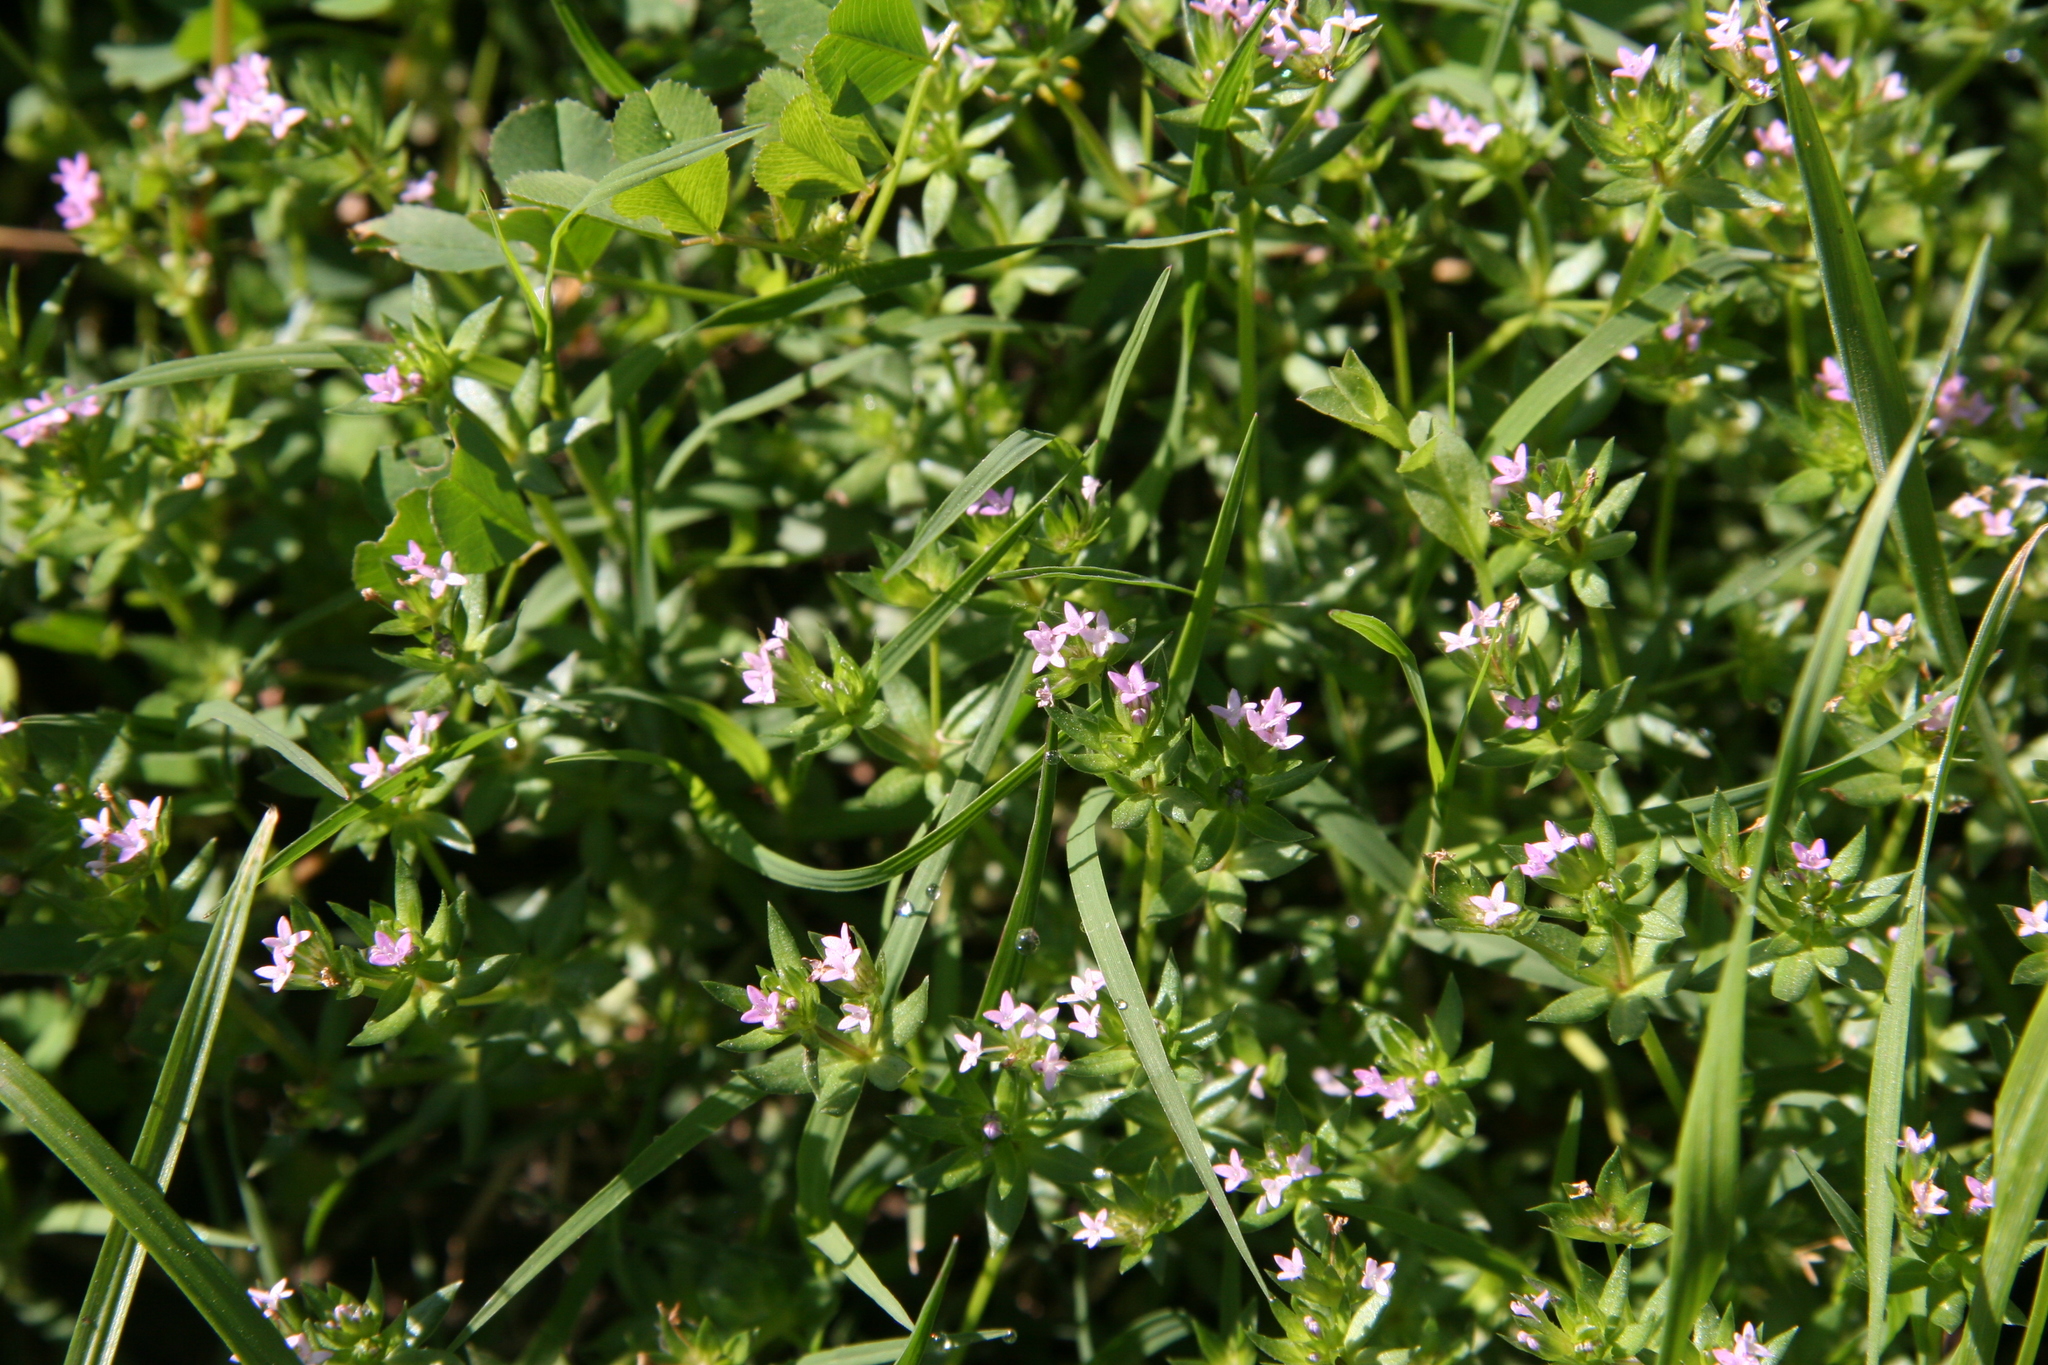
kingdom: Plantae
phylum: Tracheophyta
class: Magnoliopsida
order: Gentianales
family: Rubiaceae
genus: Sherardia
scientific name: Sherardia arvensis
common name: Field madder
